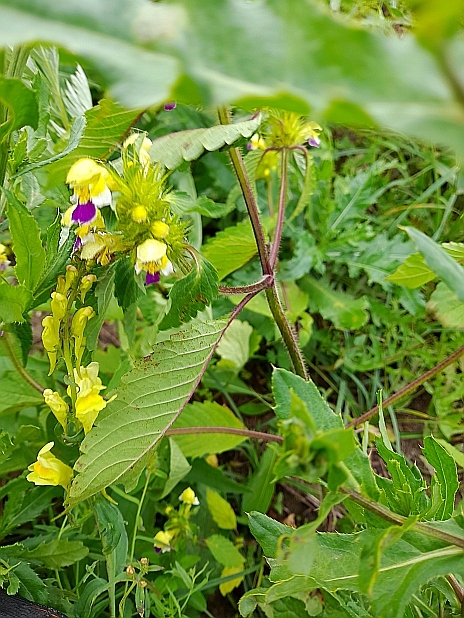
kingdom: Plantae
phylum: Tracheophyta
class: Magnoliopsida
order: Lamiales
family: Lamiaceae
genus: Galeopsis
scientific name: Galeopsis speciosa
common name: Large-flowered hemp-nettle
